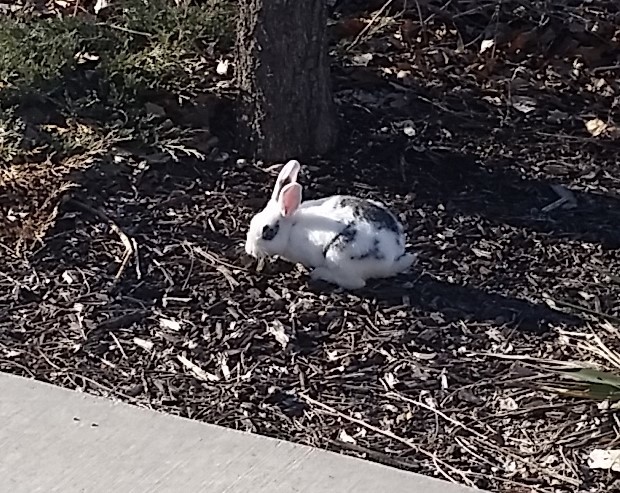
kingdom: Animalia
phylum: Chordata
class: Mammalia
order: Lagomorpha
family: Leporidae
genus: Oryctolagus
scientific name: Oryctolagus cuniculus
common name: European rabbit
